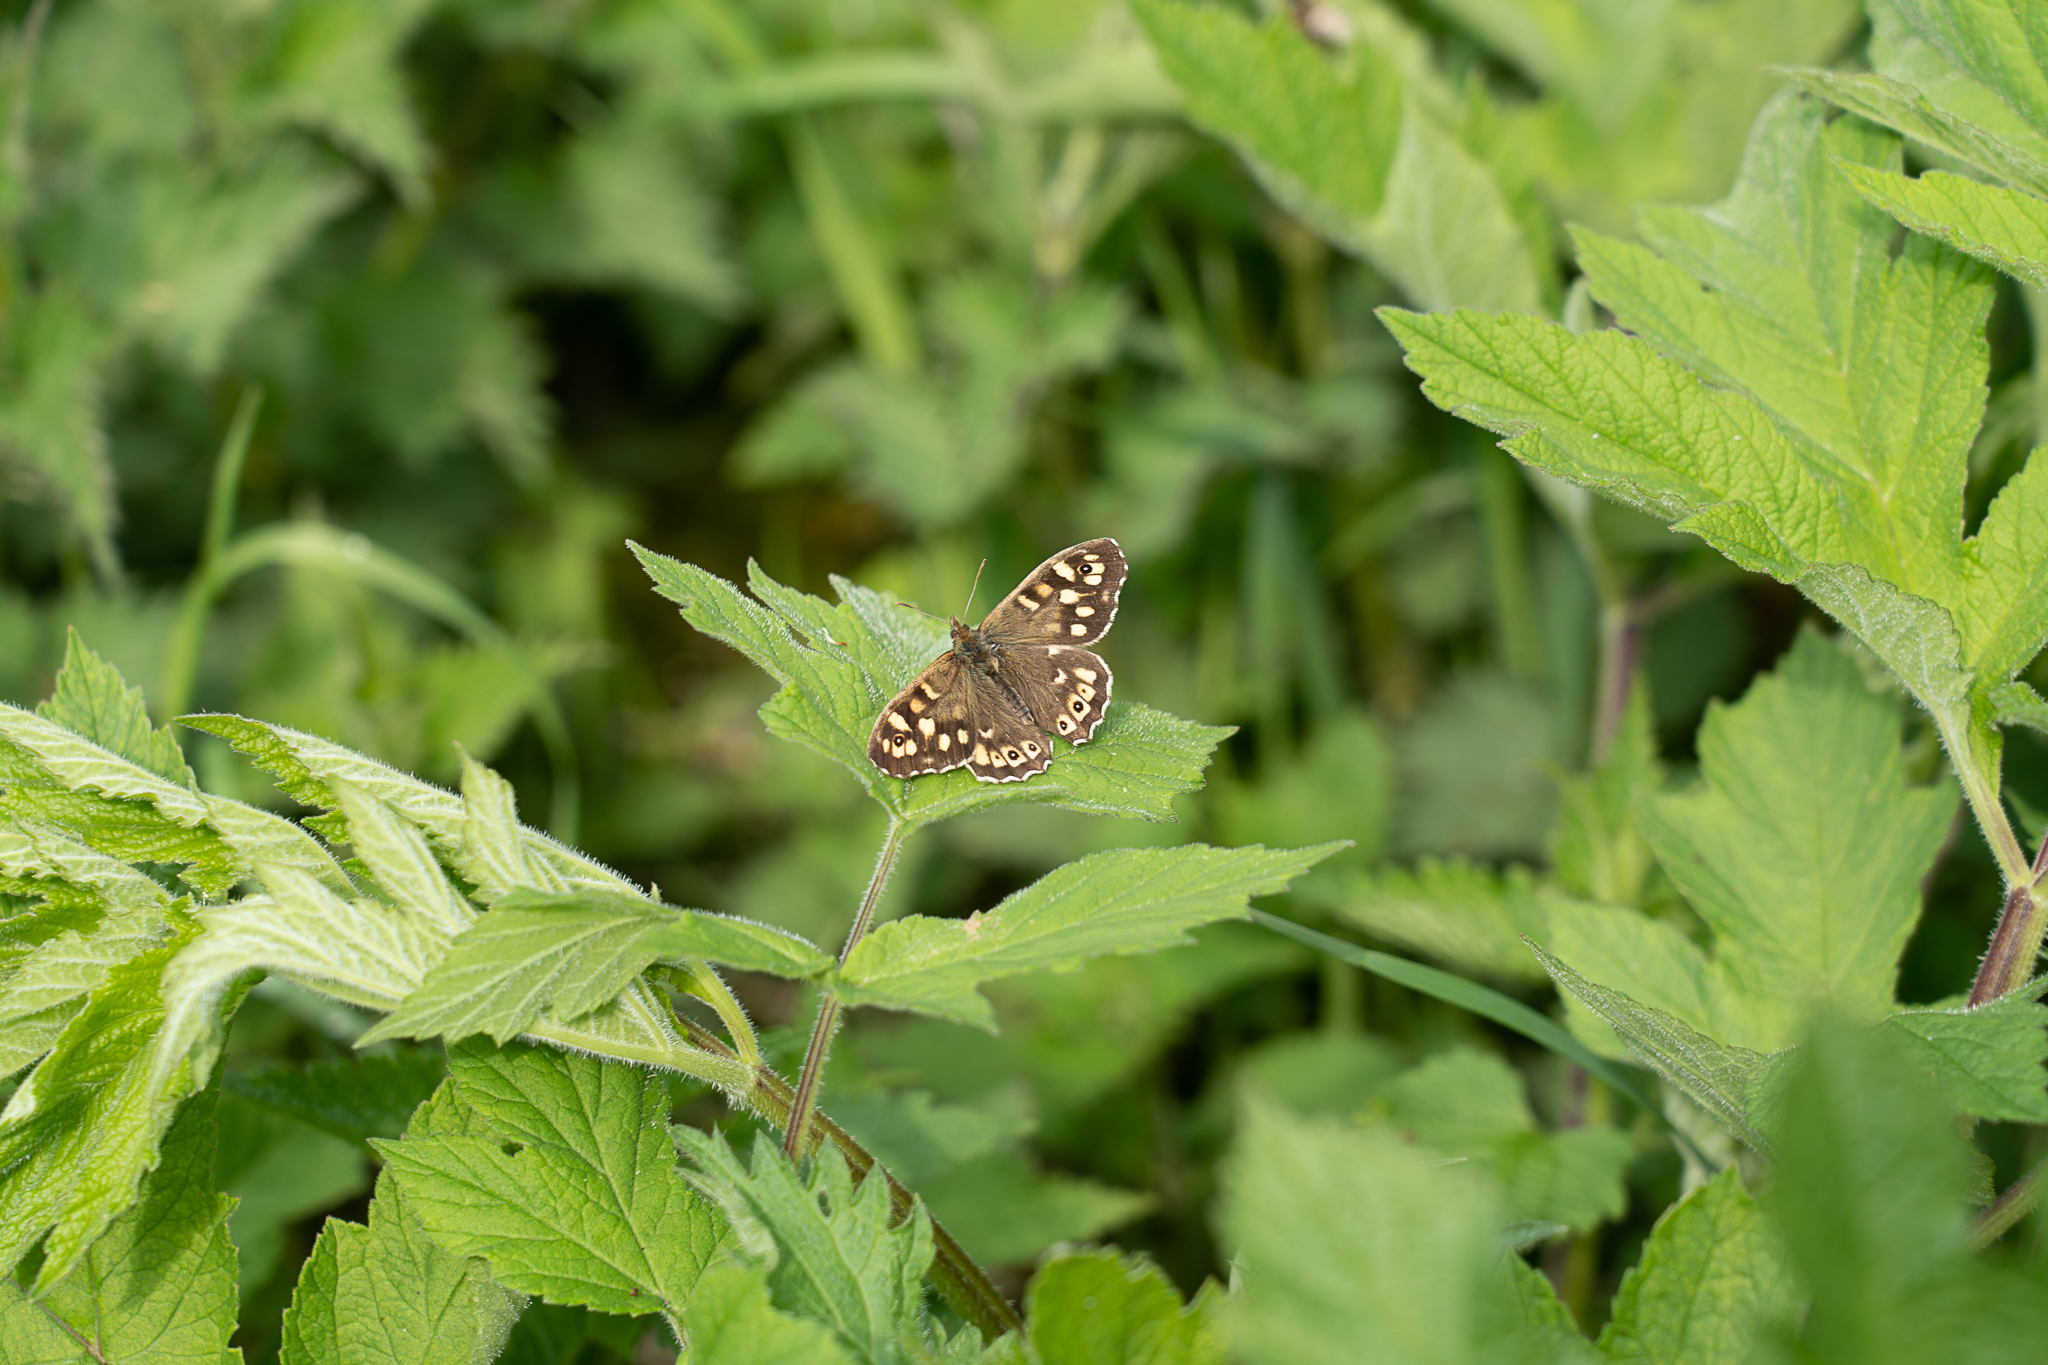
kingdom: Animalia
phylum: Arthropoda
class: Insecta
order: Lepidoptera
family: Nymphalidae
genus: Pararge
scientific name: Pararge aegeria
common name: Speckled wood
